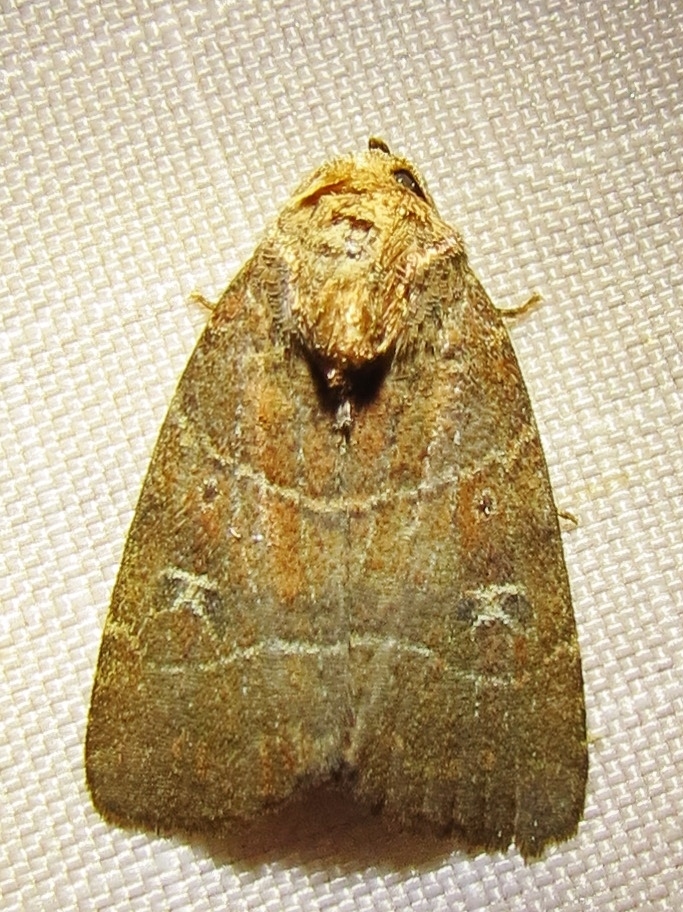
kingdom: Animalia
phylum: Arthropoda
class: Insecta
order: Lepidoptera
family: Noctuidae
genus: Elaphria
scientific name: Elaphria grata
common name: Grateful midget moth
